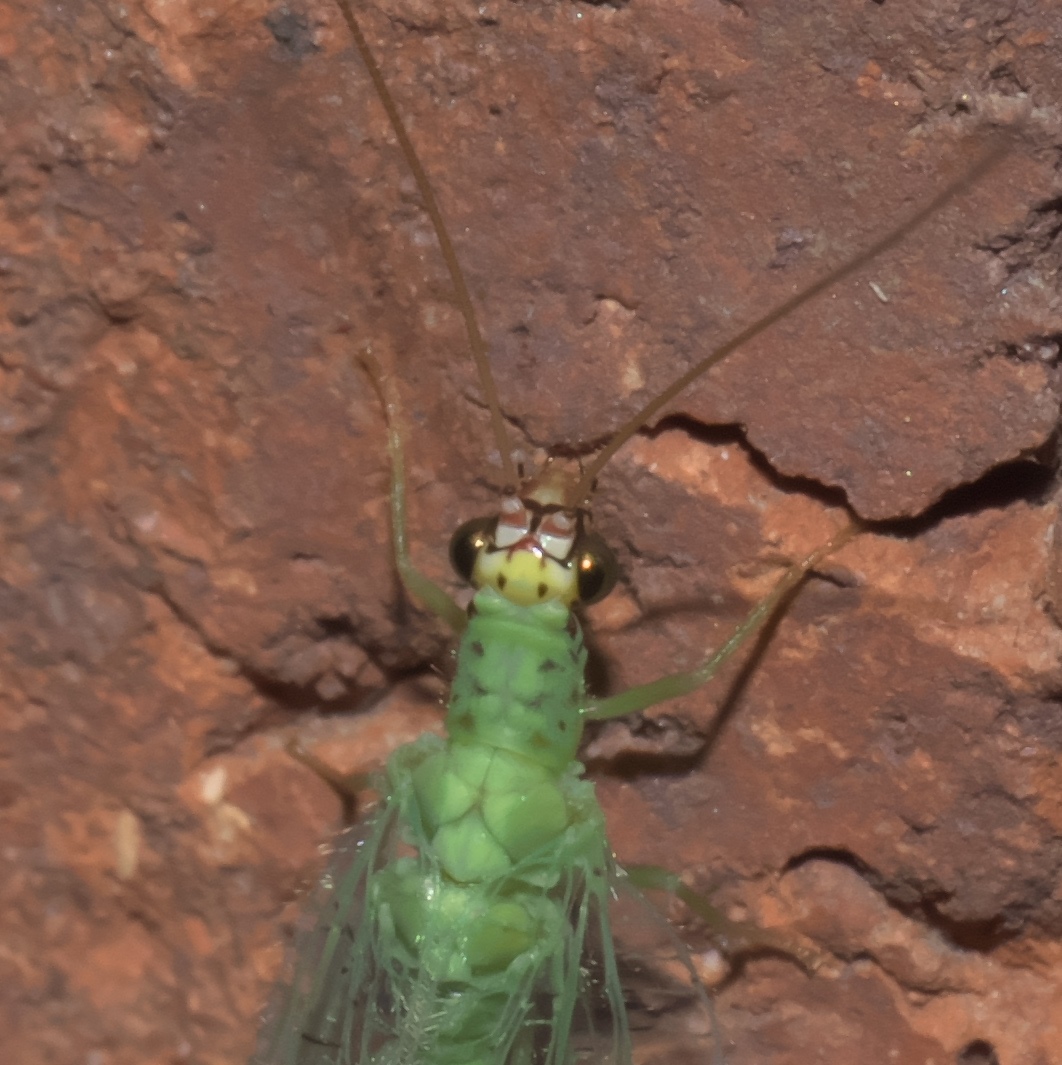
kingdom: Animalia
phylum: Arthropoda
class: Insecta
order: Neuroptera
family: Chrysopidae
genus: Chrysopa
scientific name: Chrysopa oculata
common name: Golden-eyed lacewing
